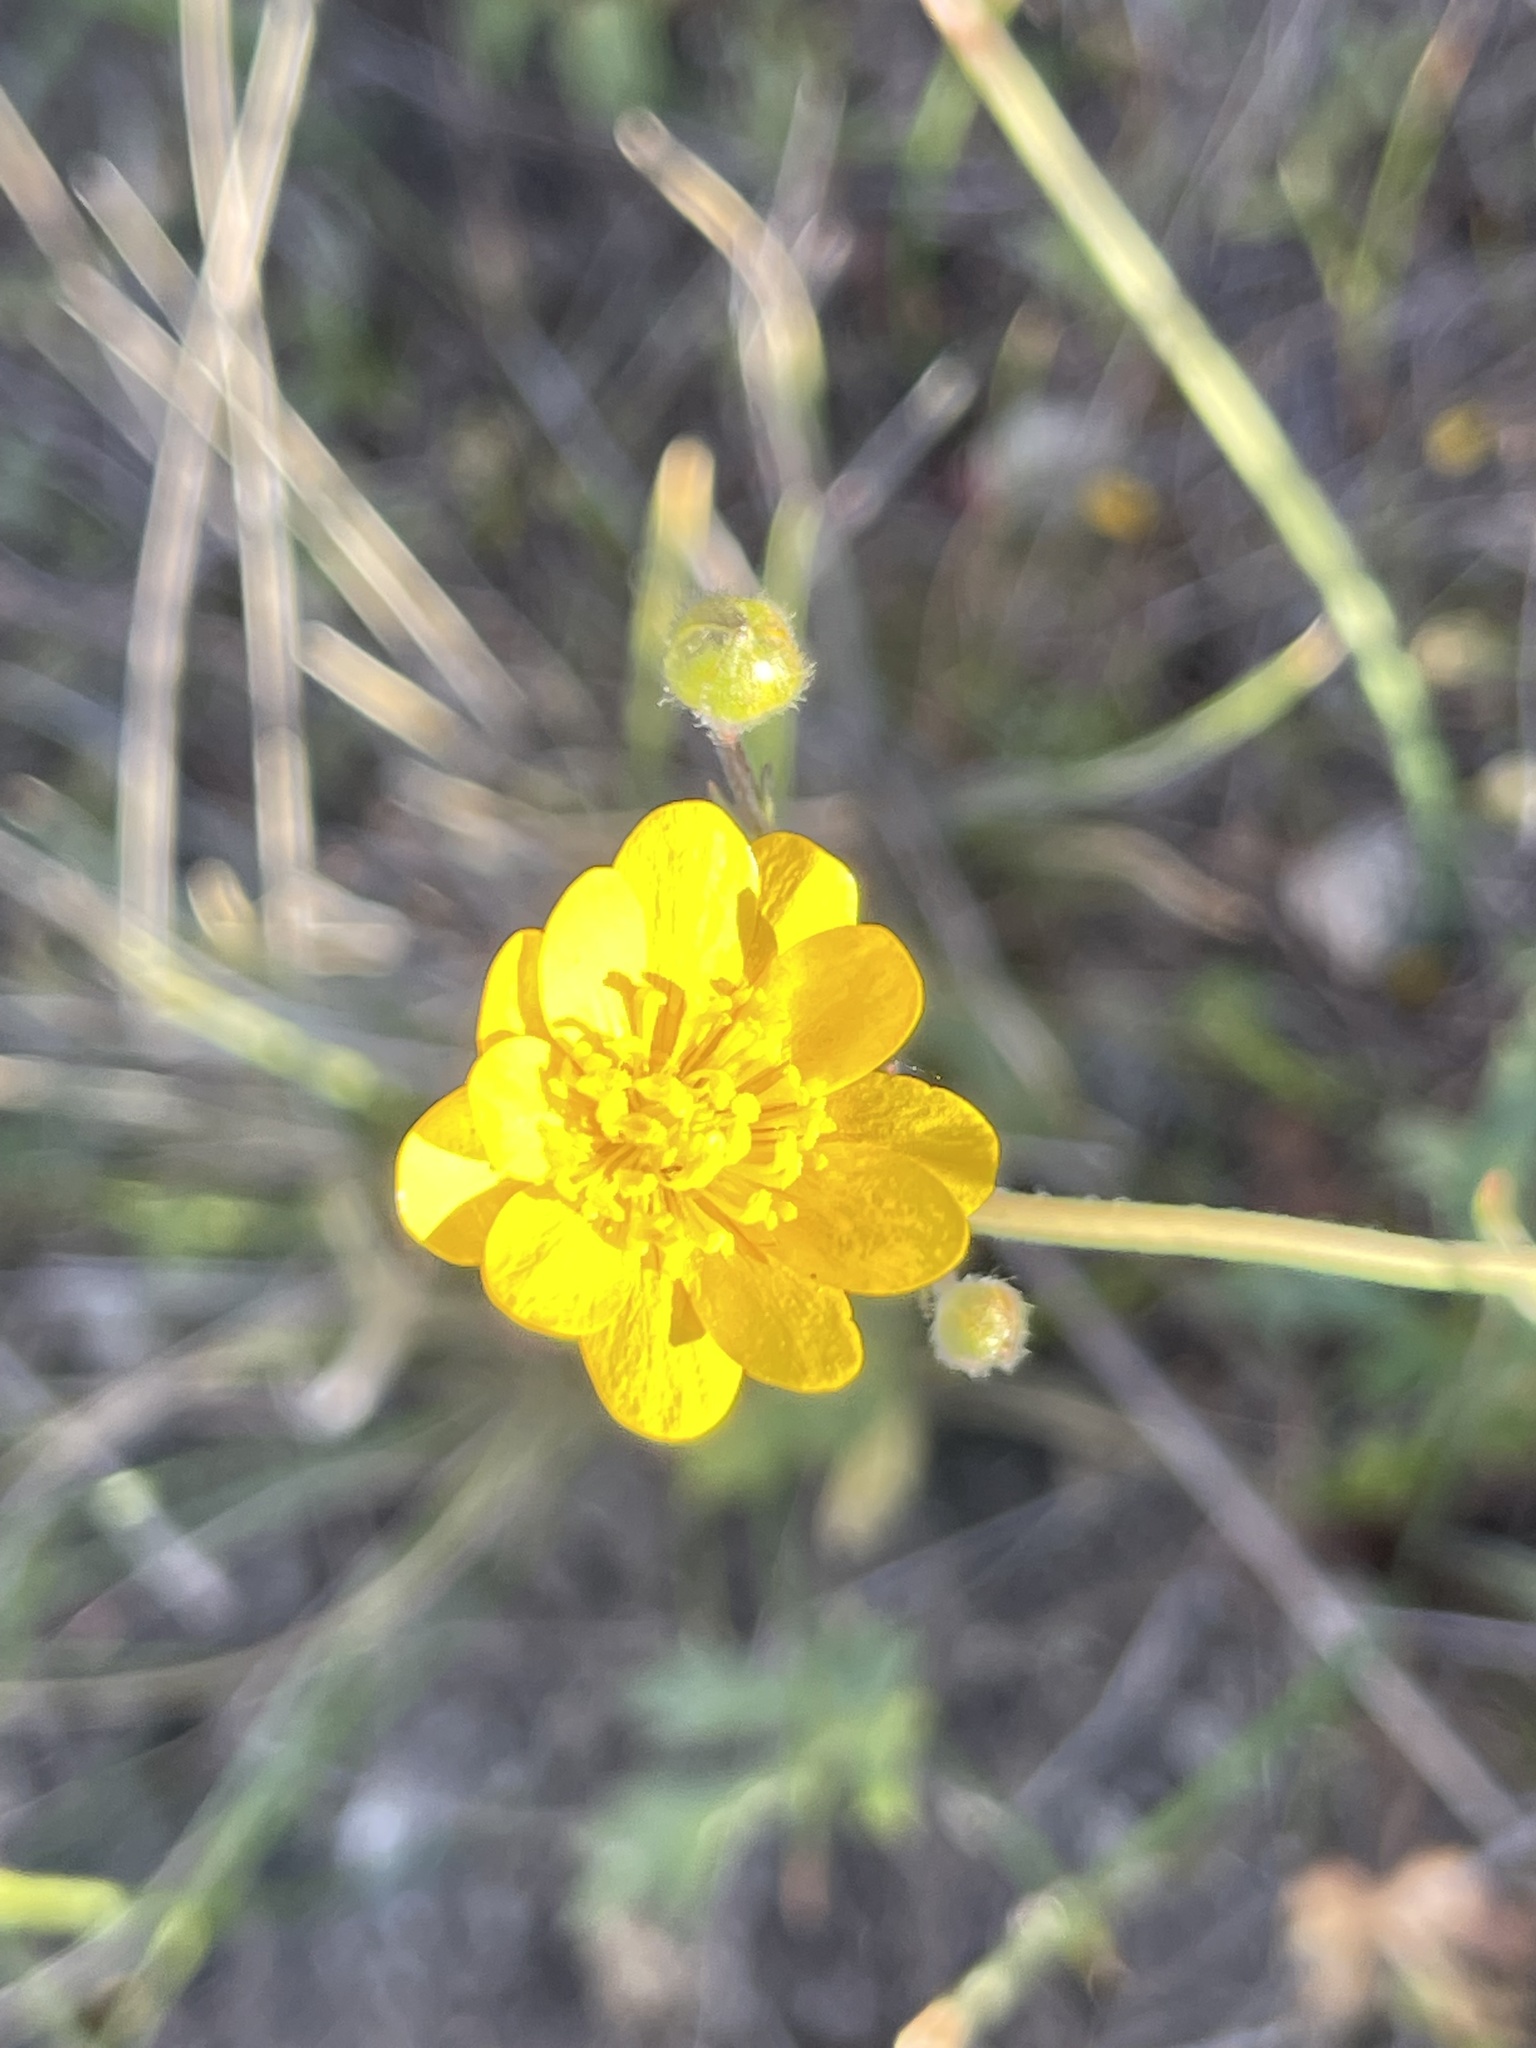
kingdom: Plantae
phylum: Tracheophyta
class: Magnoliopsida
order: Ranunculales
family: Ranunculaceae
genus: Ranunculus
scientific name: Ranunculus californicus
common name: California buttercup
